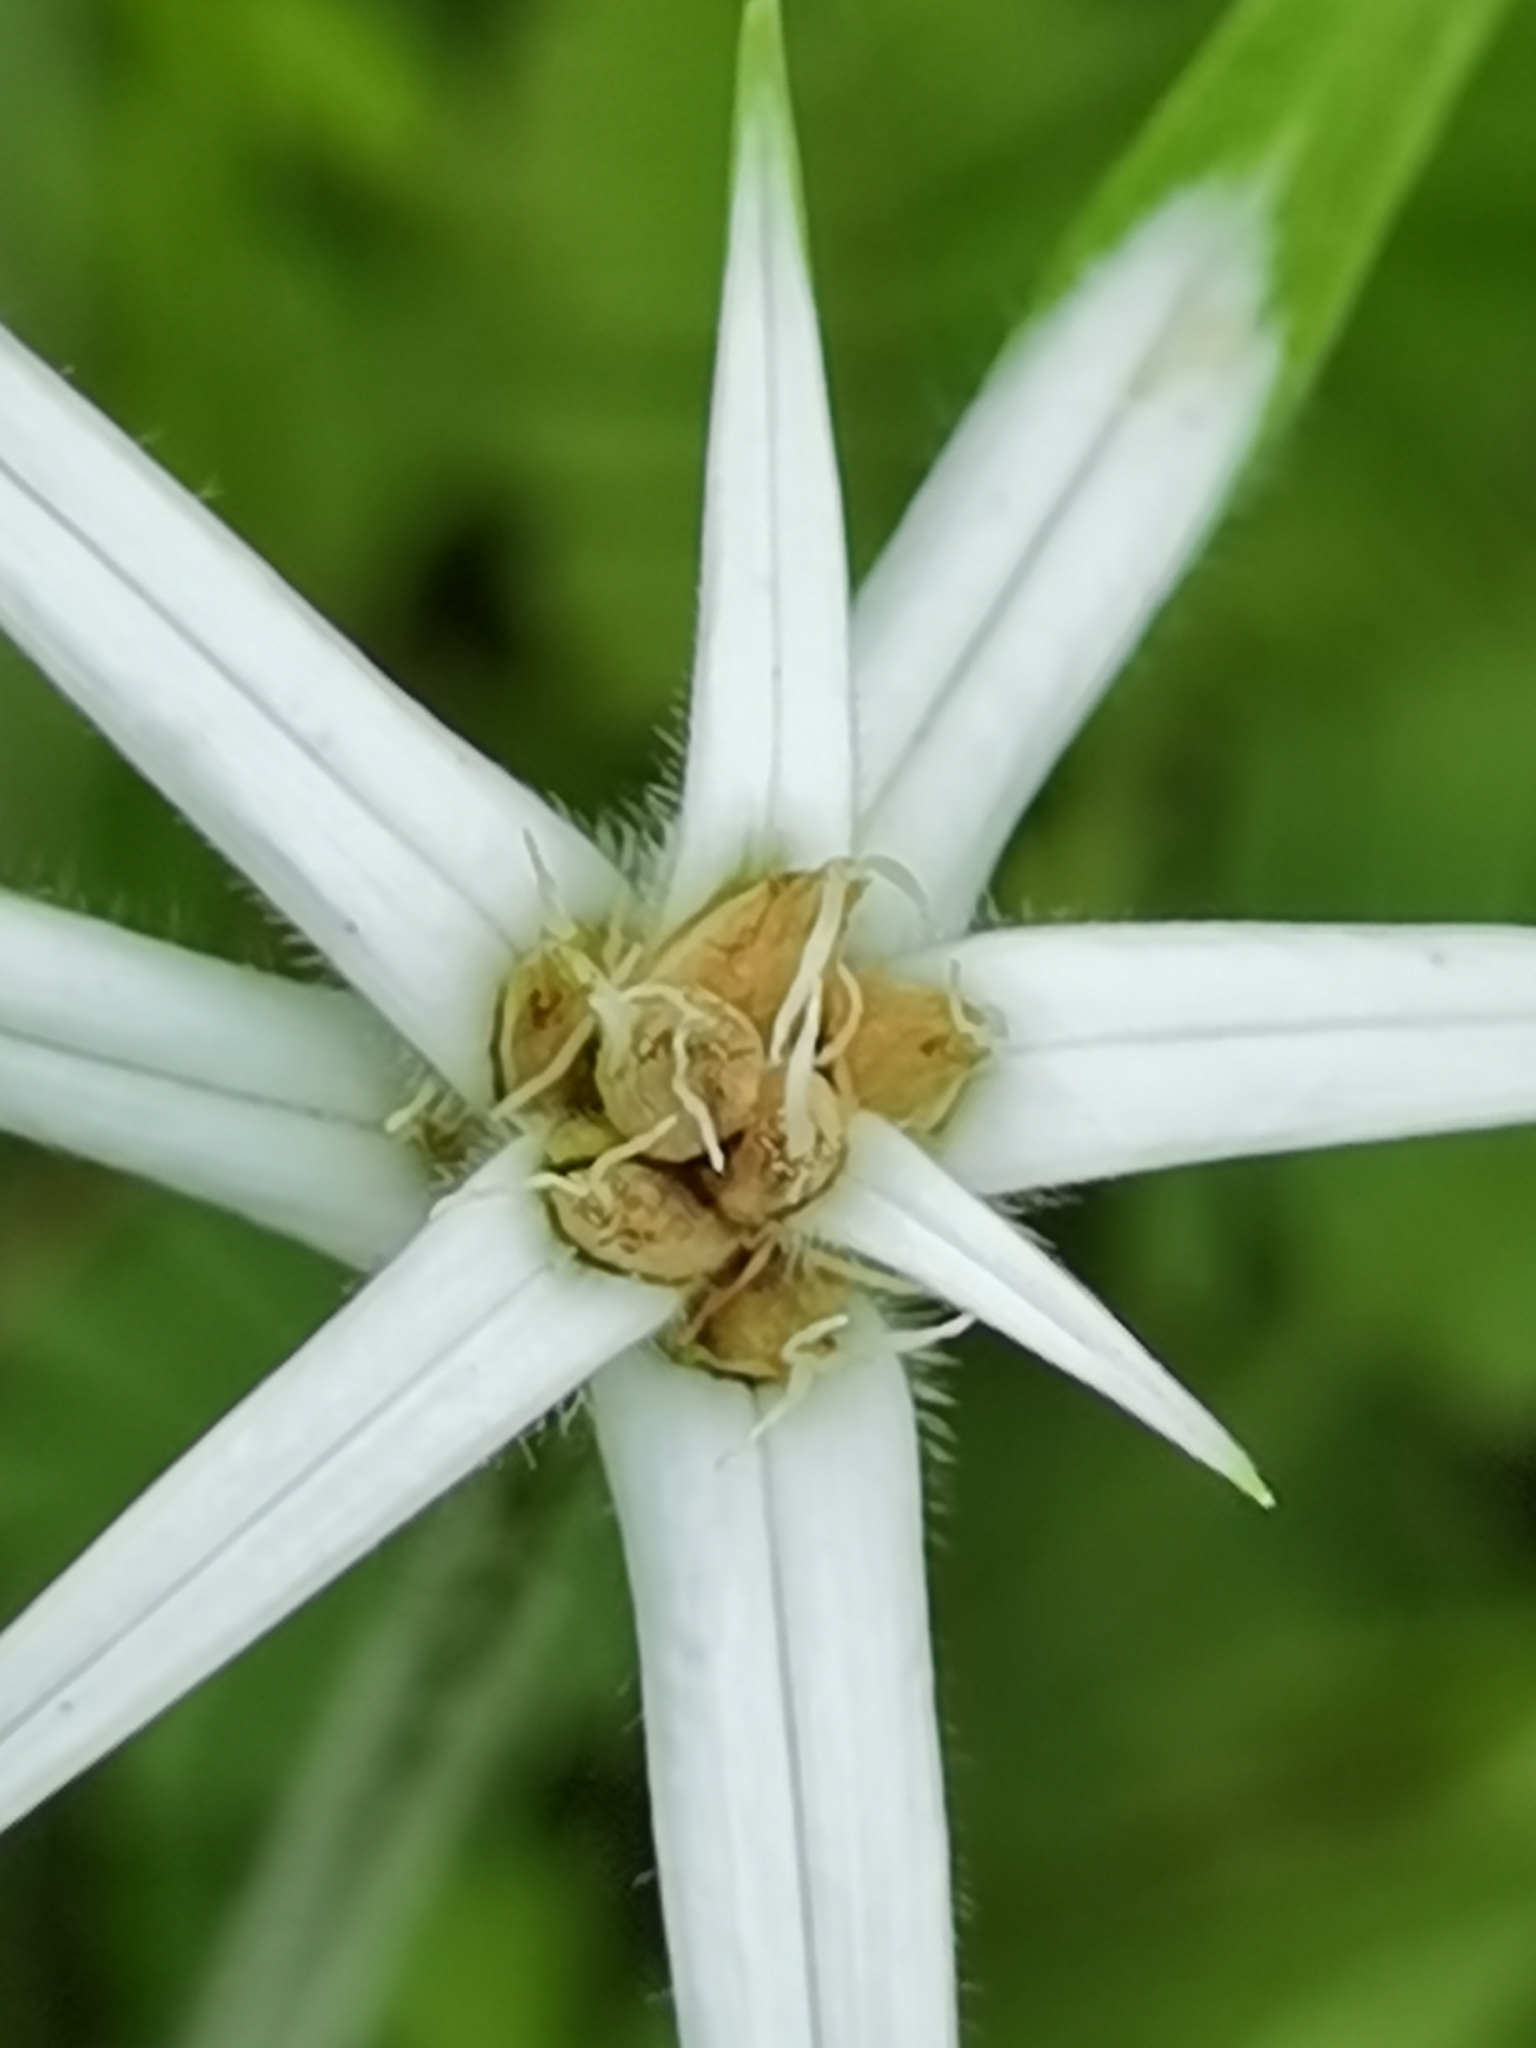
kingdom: Plantae
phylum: Tracheophyta
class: Liliopsida
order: Poales
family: Cyperaceae
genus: Rhynchospora
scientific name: Rhynchospora nervosa
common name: Star sedge
